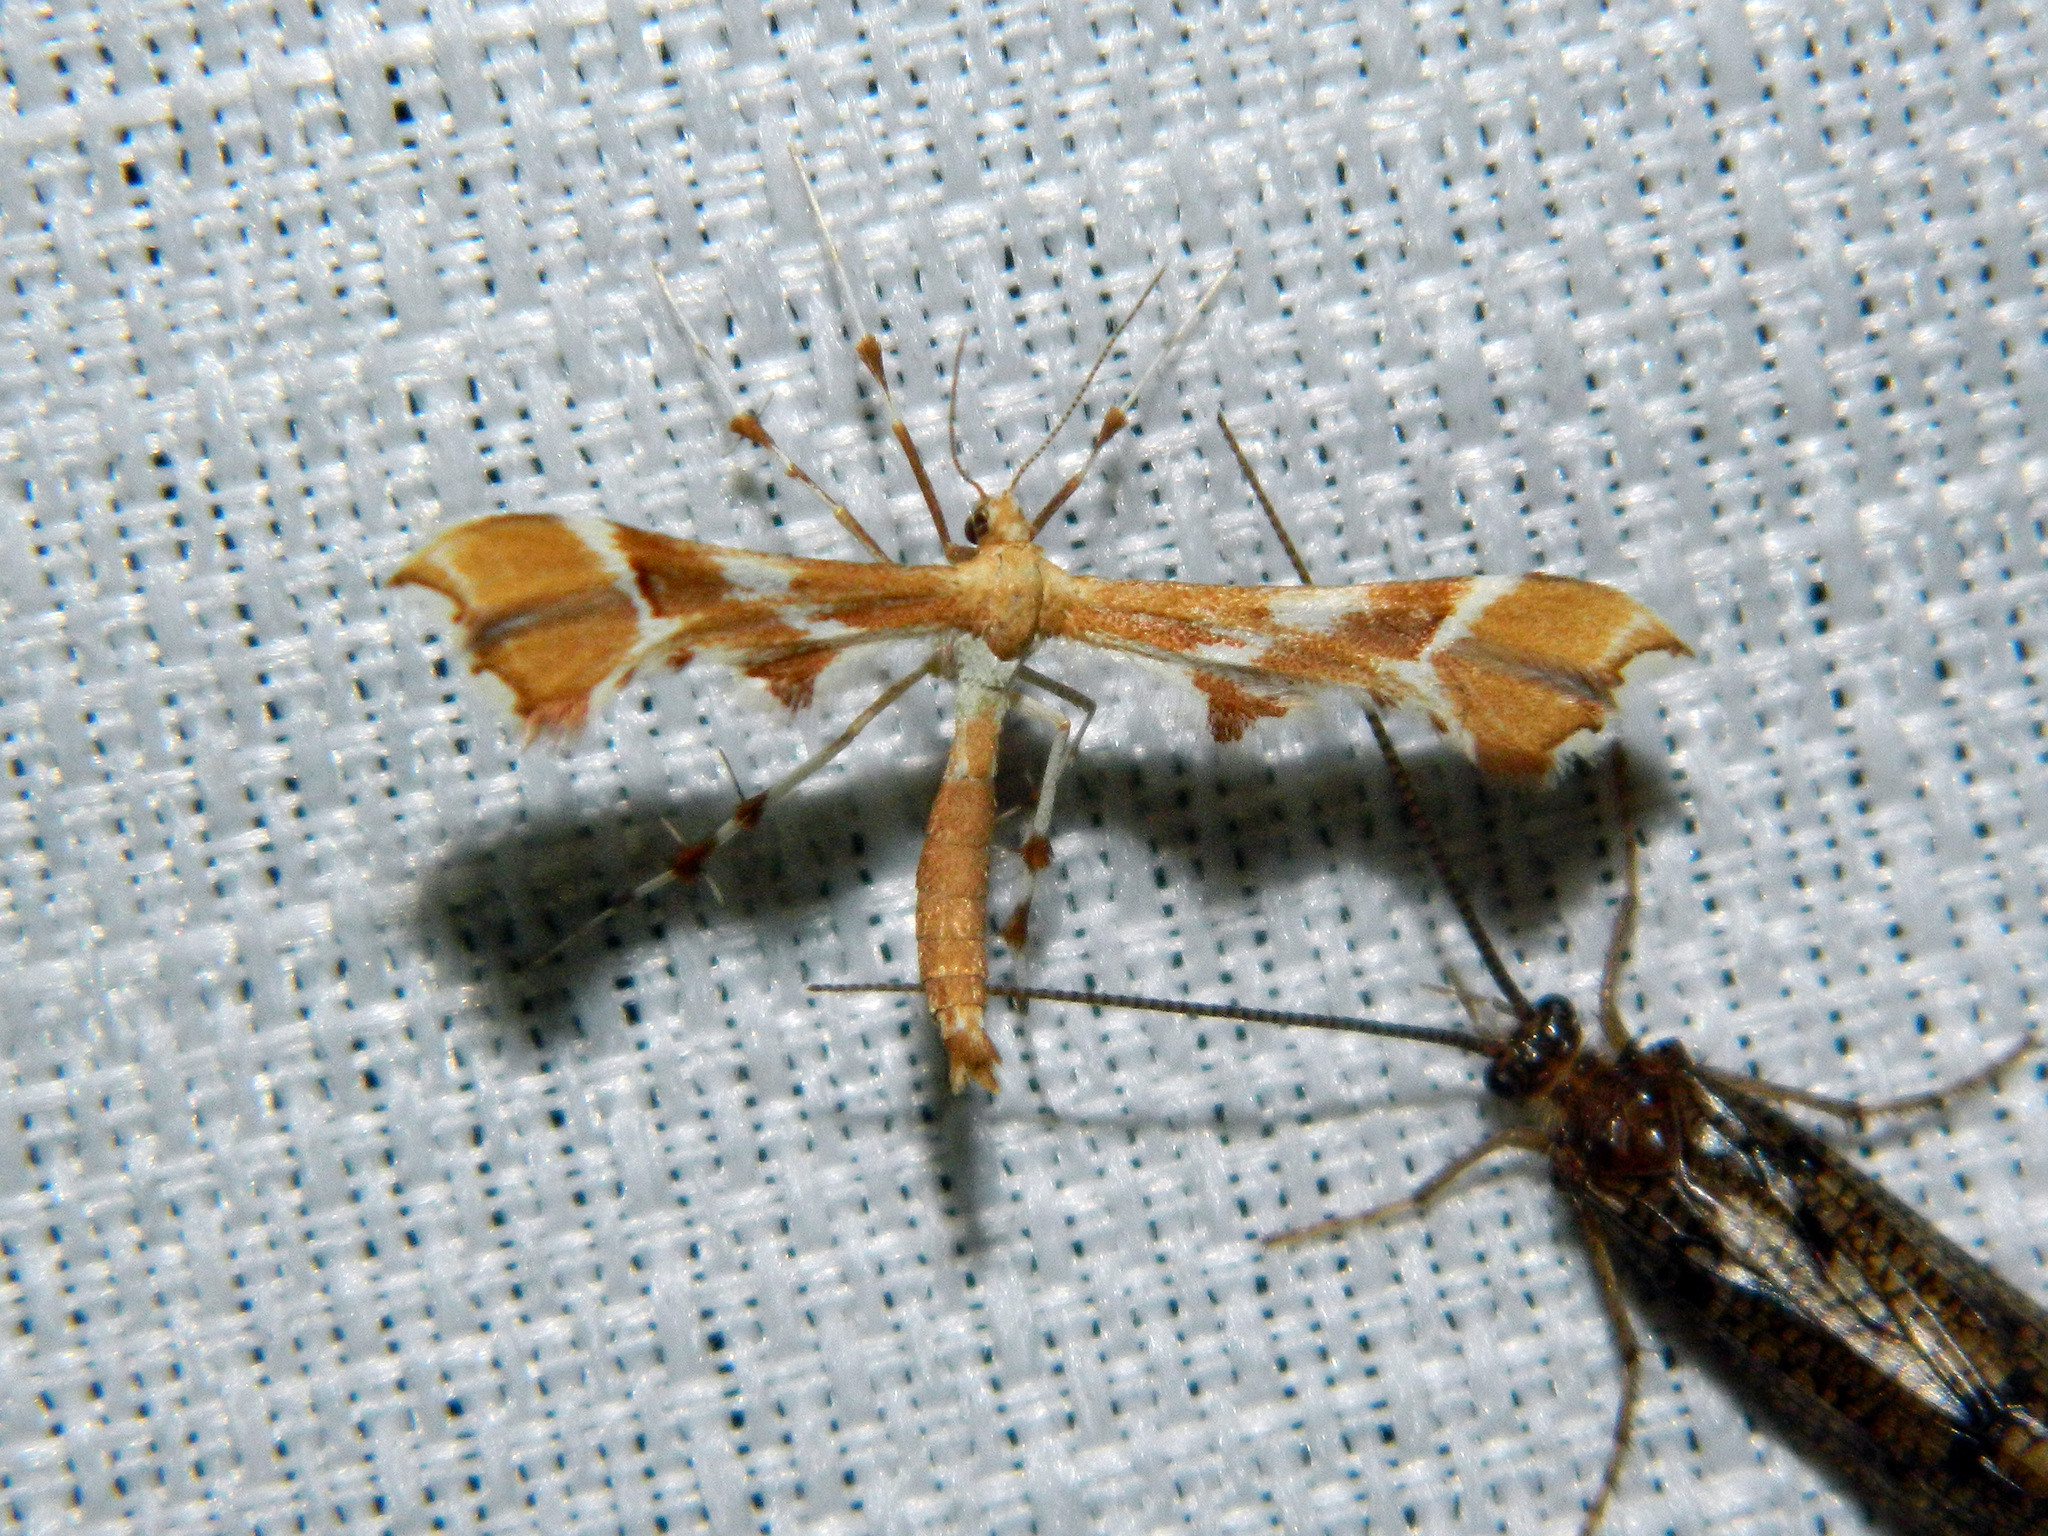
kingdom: Animalia
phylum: Arthropoda
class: Insecta
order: Lepidoptera
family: Pterophoridae
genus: Cnaemidophorus
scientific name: Cnaemidophorus rhododactyla
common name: Rose plume
